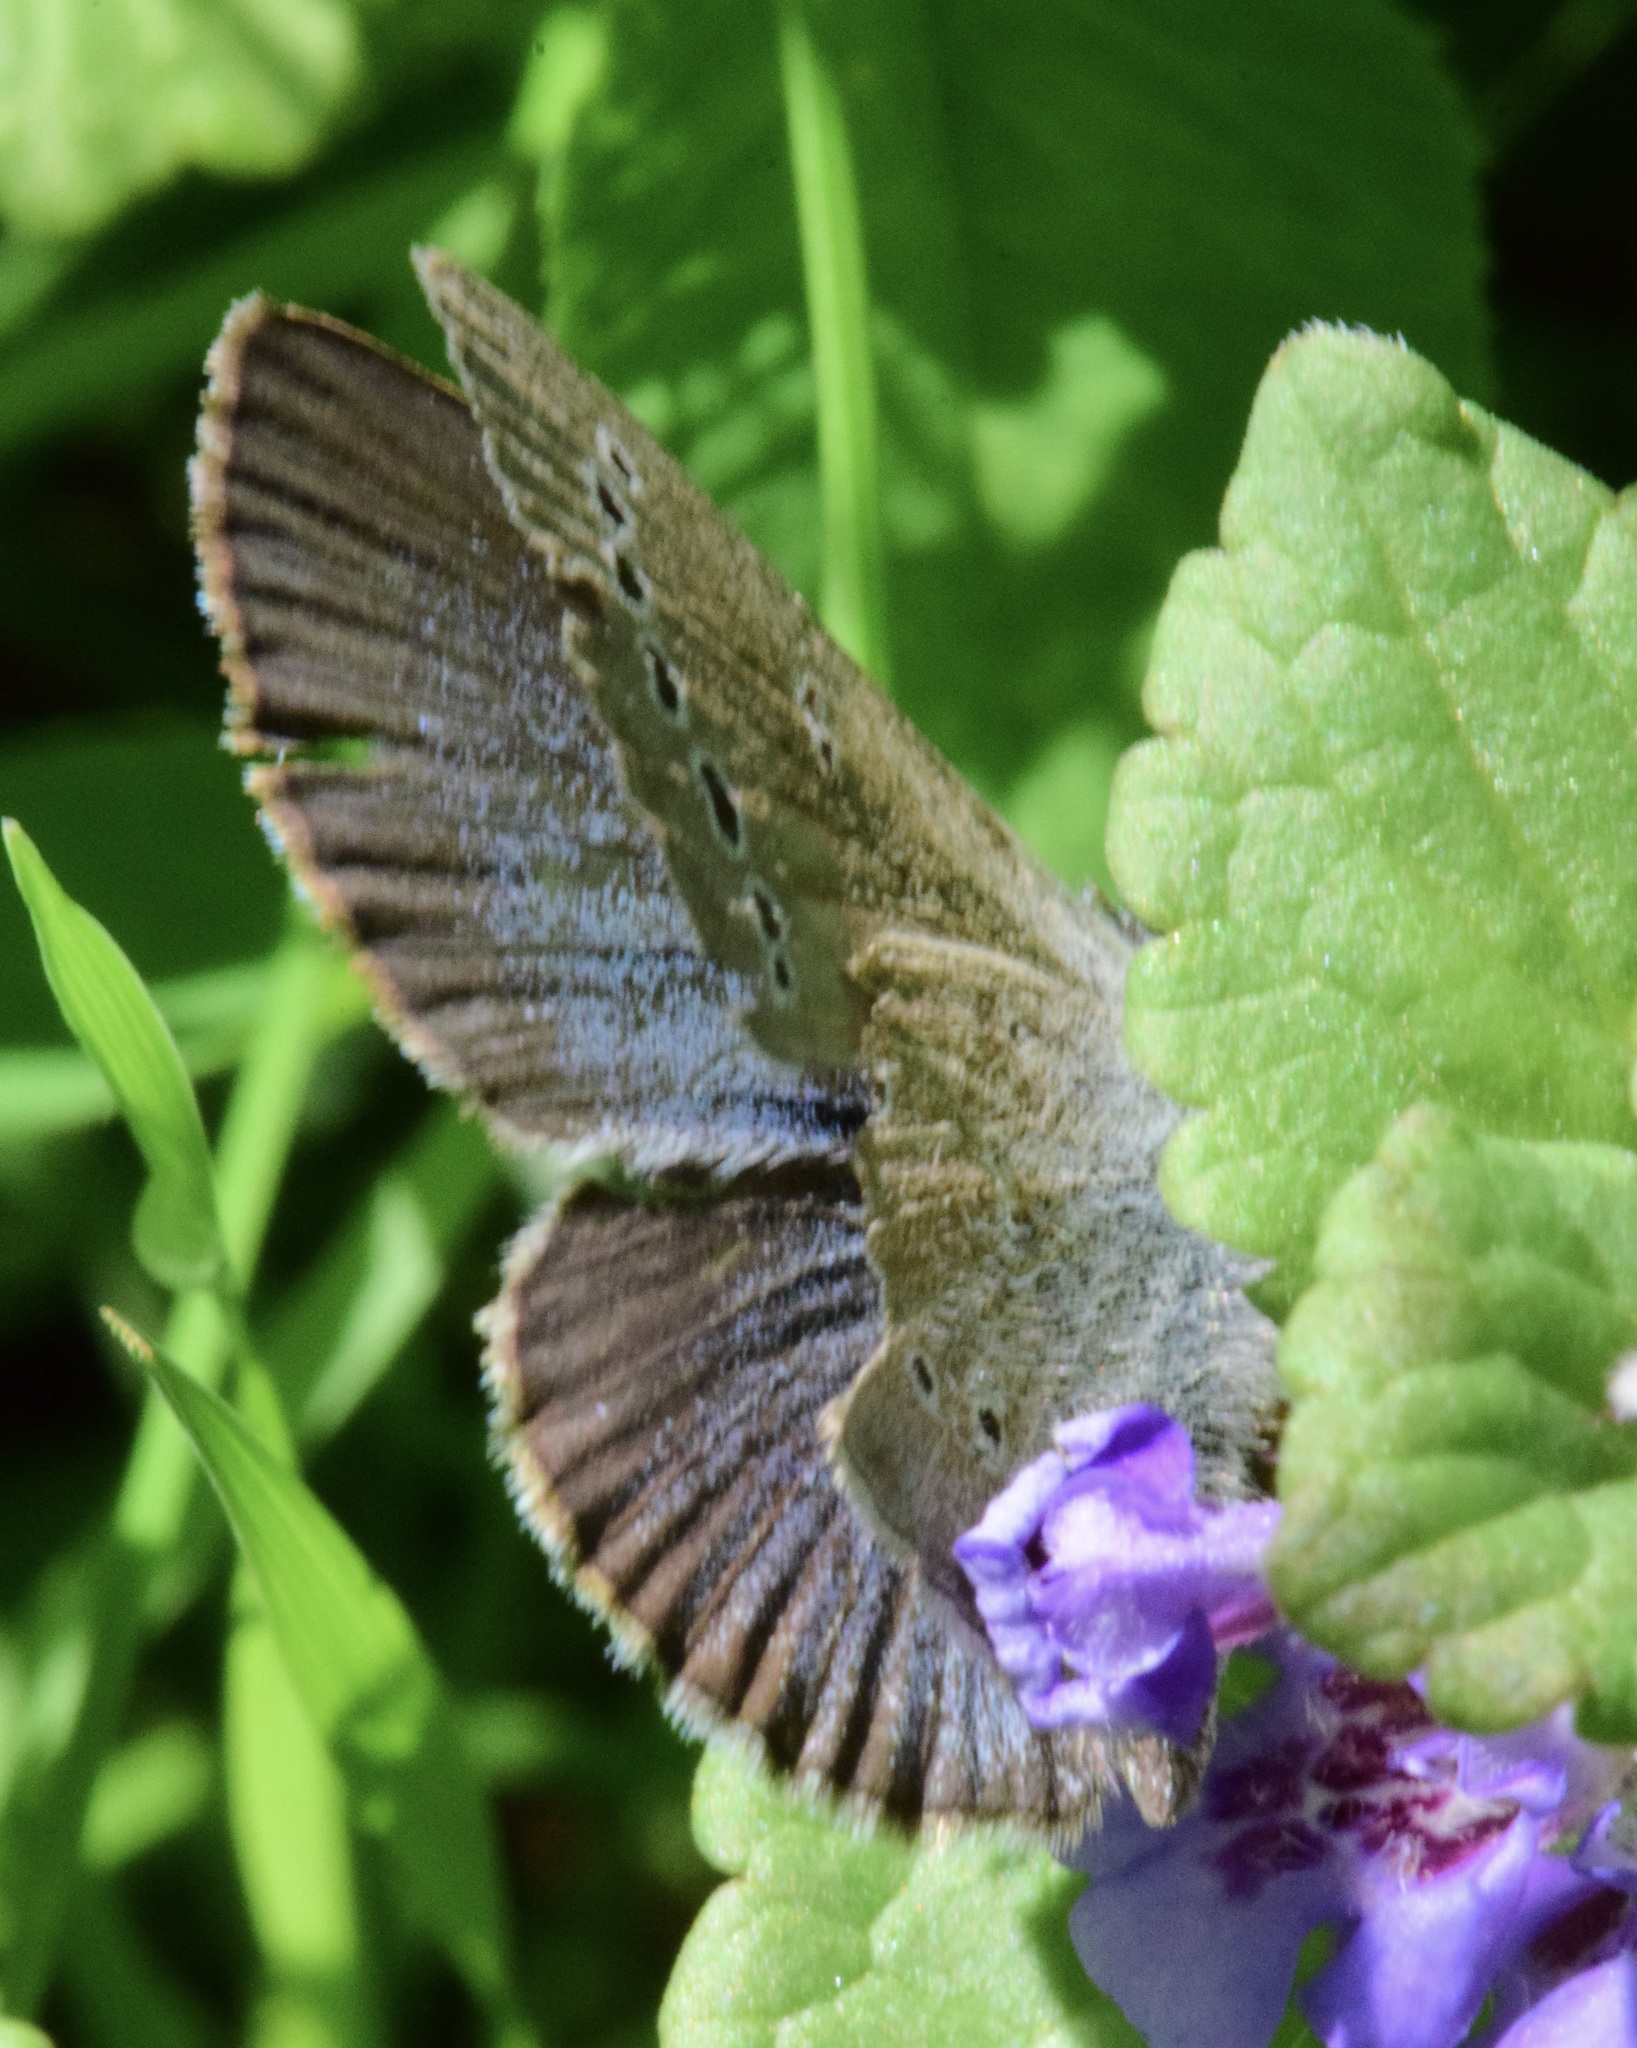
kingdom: Animalia
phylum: Arthropoda
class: Insecta
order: Lepidoptera
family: Lycaenidae
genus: Glaucopsyche
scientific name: Glaucopsyche lygdamus
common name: Silvery blue
